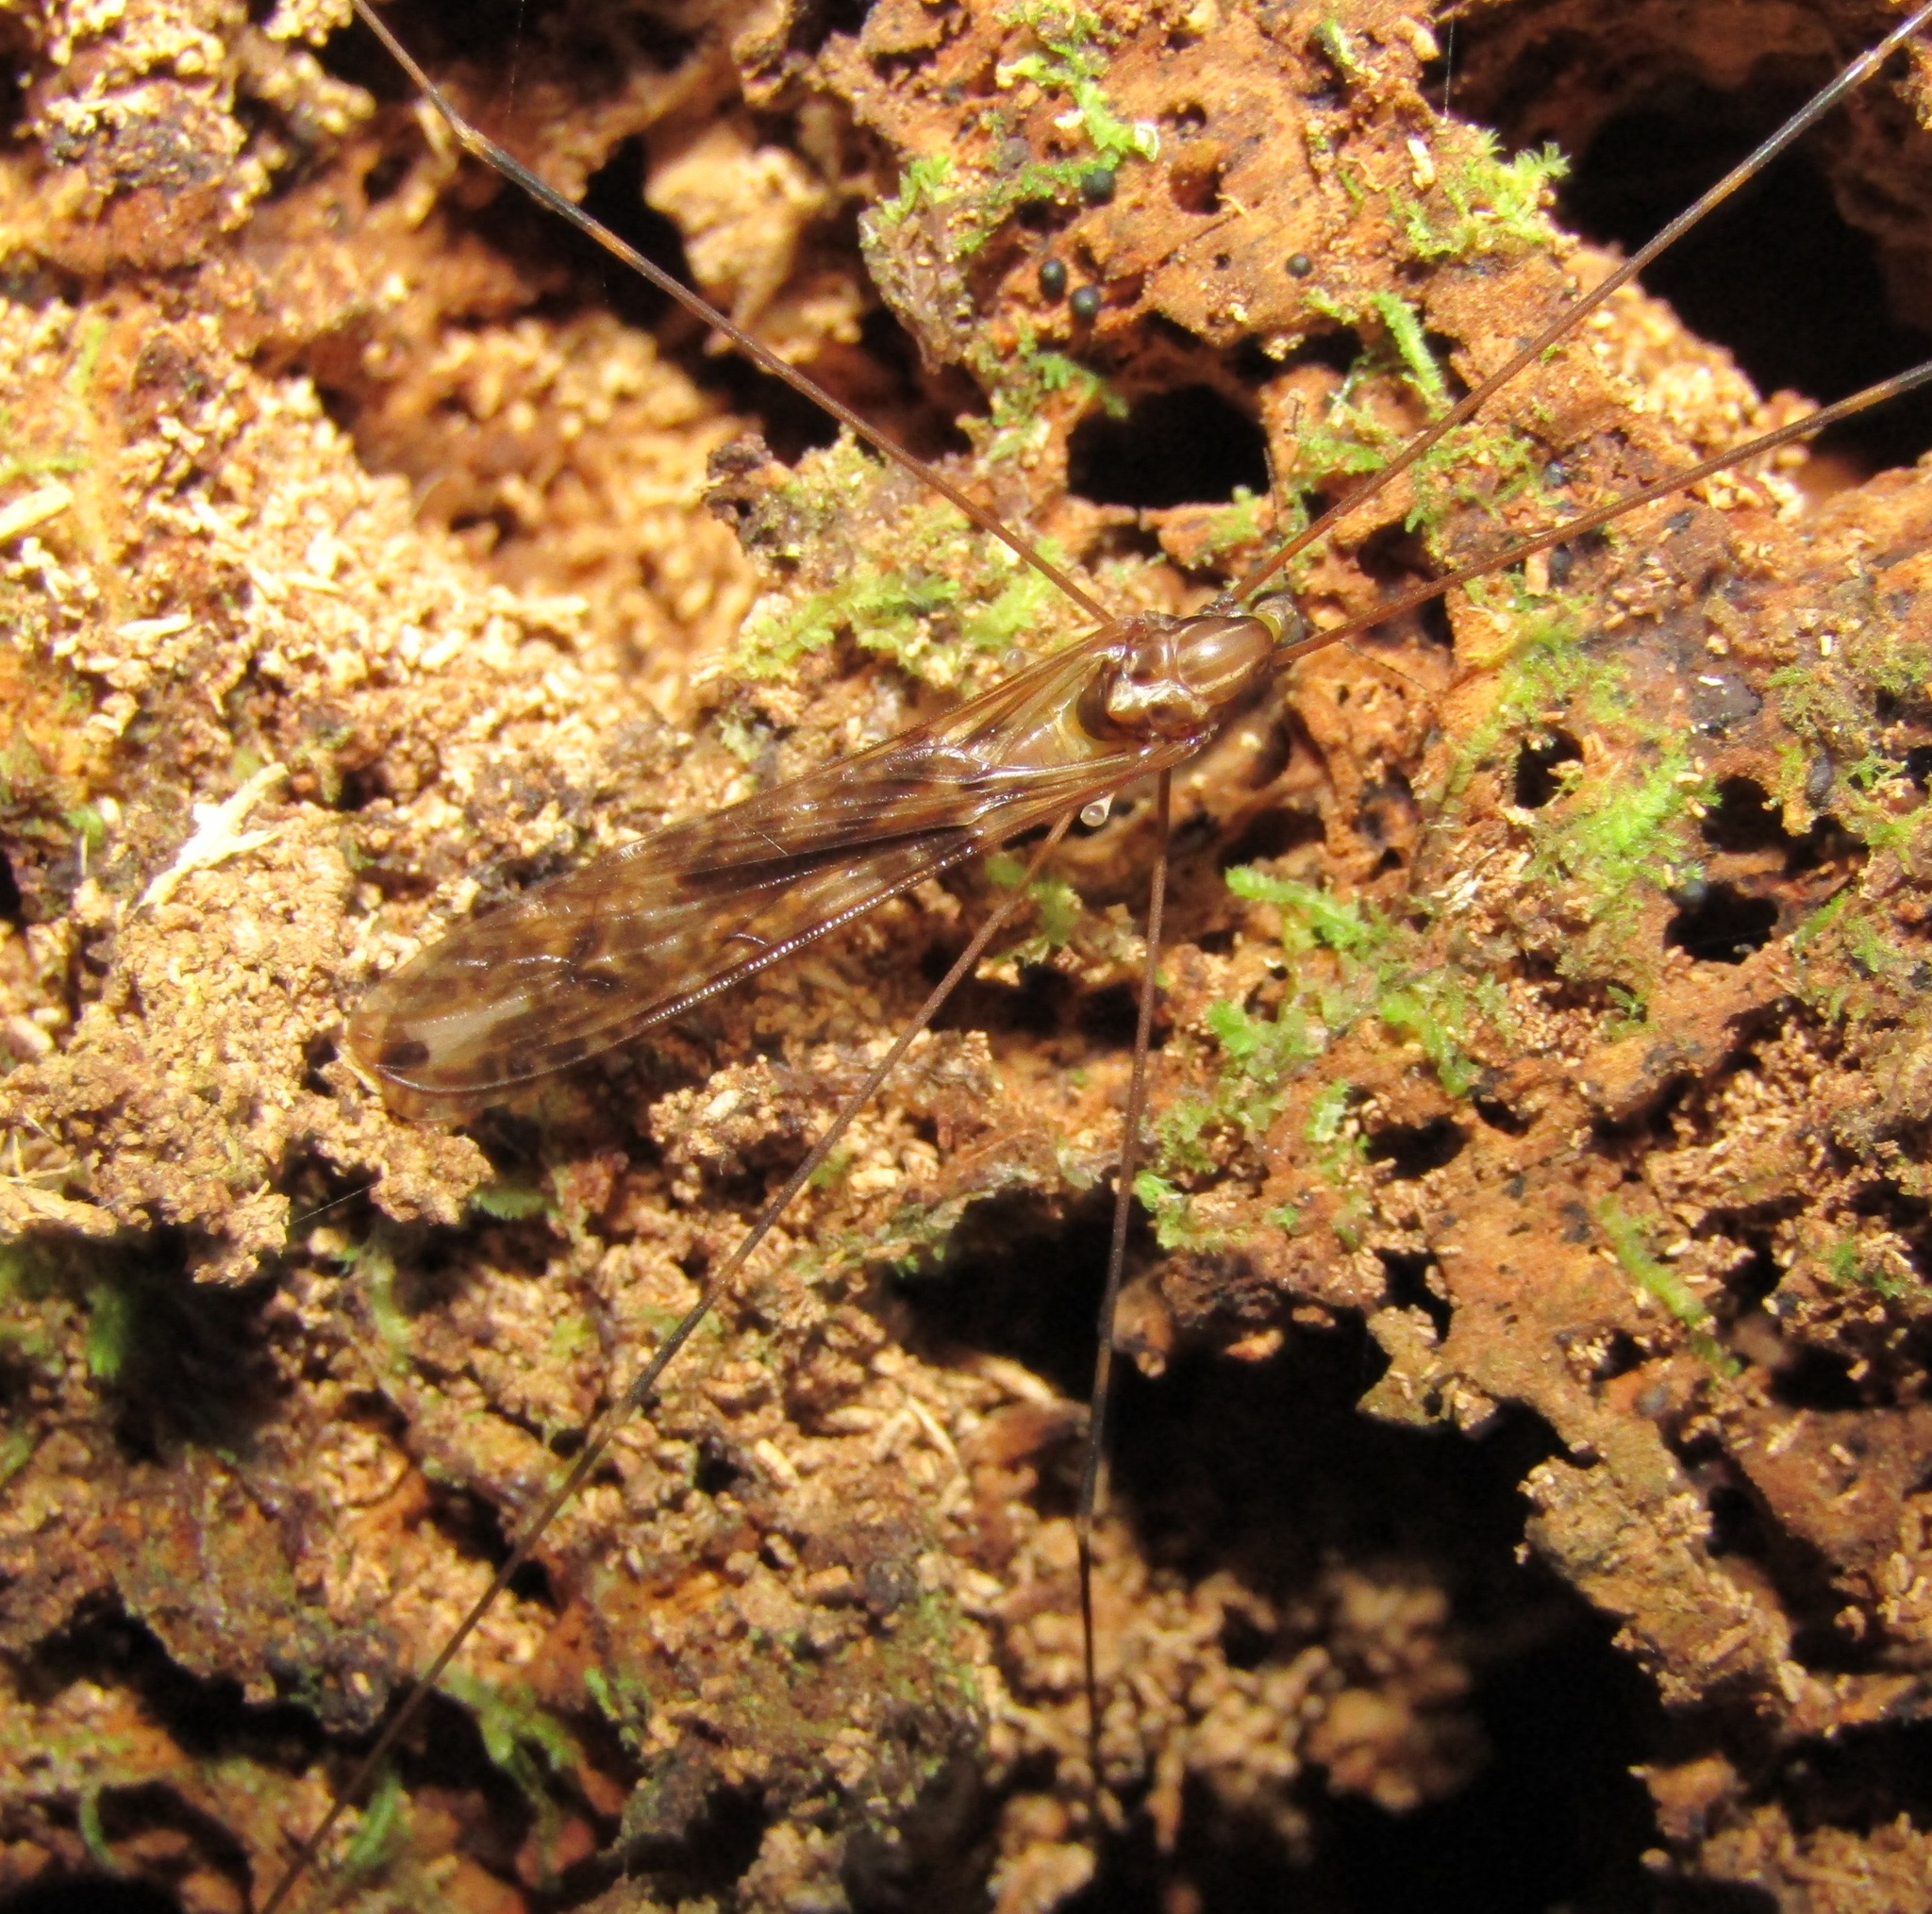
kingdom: Animalia
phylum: Arthropoda
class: Insecta
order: Diptera
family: Limoniidae
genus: Discobola
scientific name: Discobola dohrni
